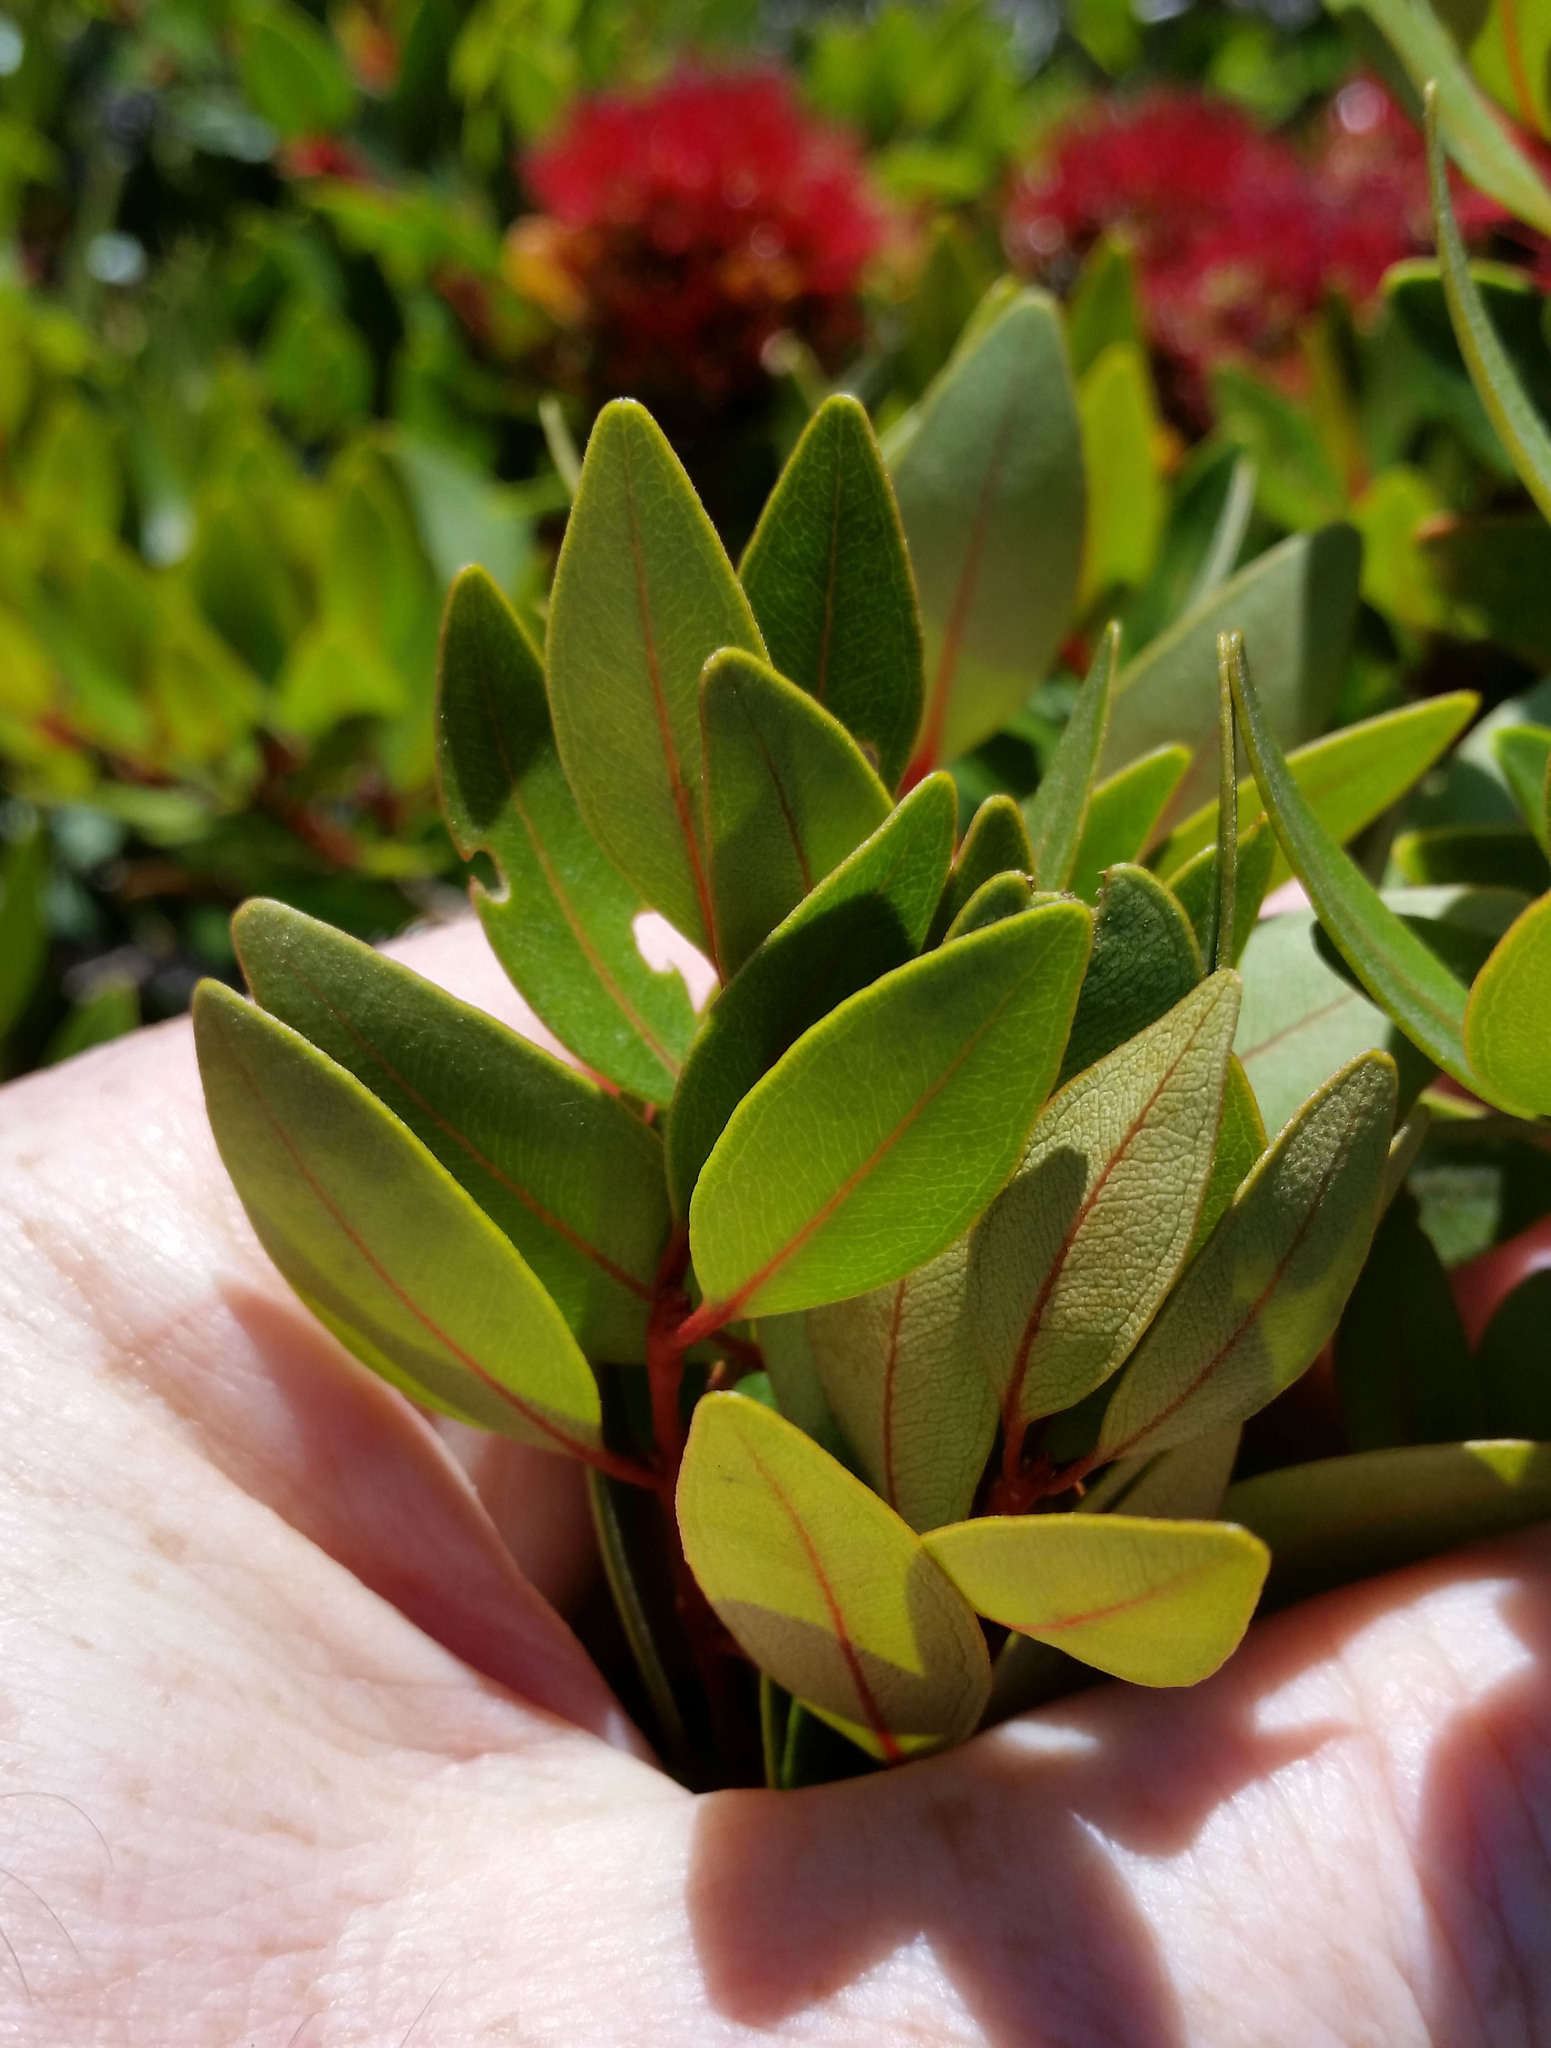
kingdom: Plantae
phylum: Tracheophyta
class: Magnoliopsida
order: Myrtales
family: Myrtaceae
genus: Metrosideros
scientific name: Metrosideros robusta
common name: Northern rata
